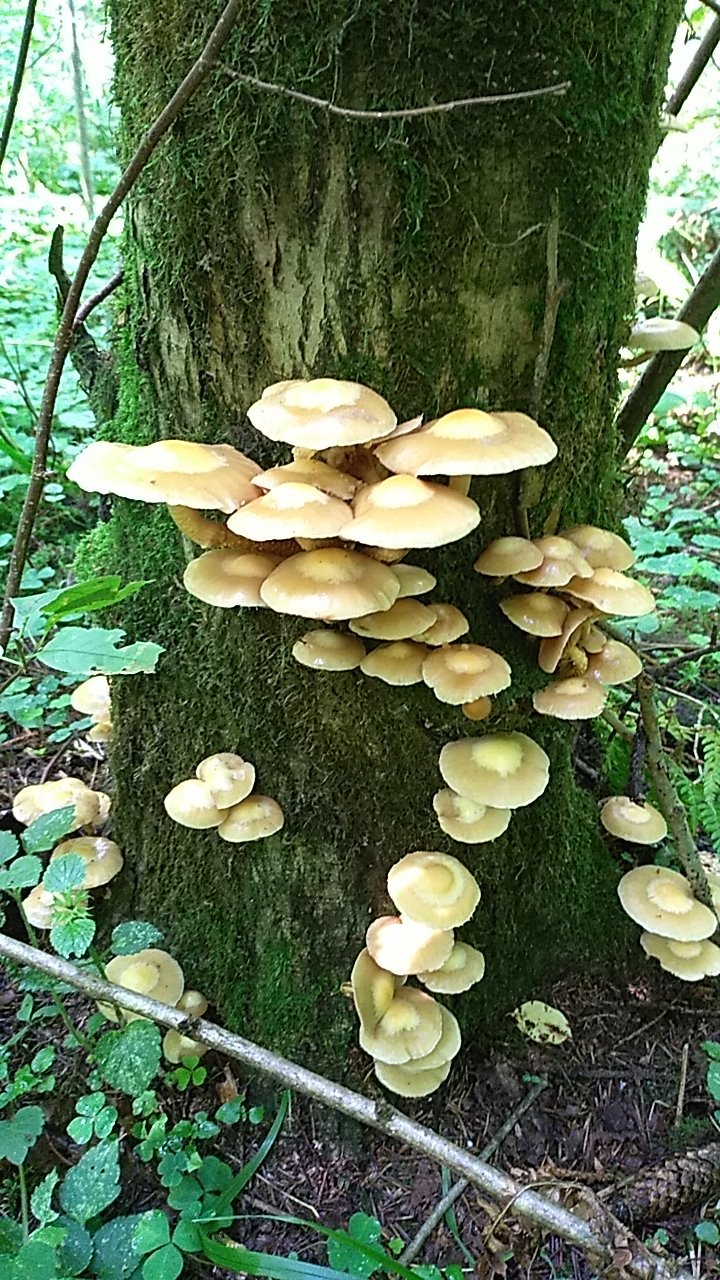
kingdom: Fungi
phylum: Basidiomycota
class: Agaricomycetes
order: Agaricales
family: Strophariaceae
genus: Kuehneromyces
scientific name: Kuehneromyces mutabilis
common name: Sheathed woodtuft
